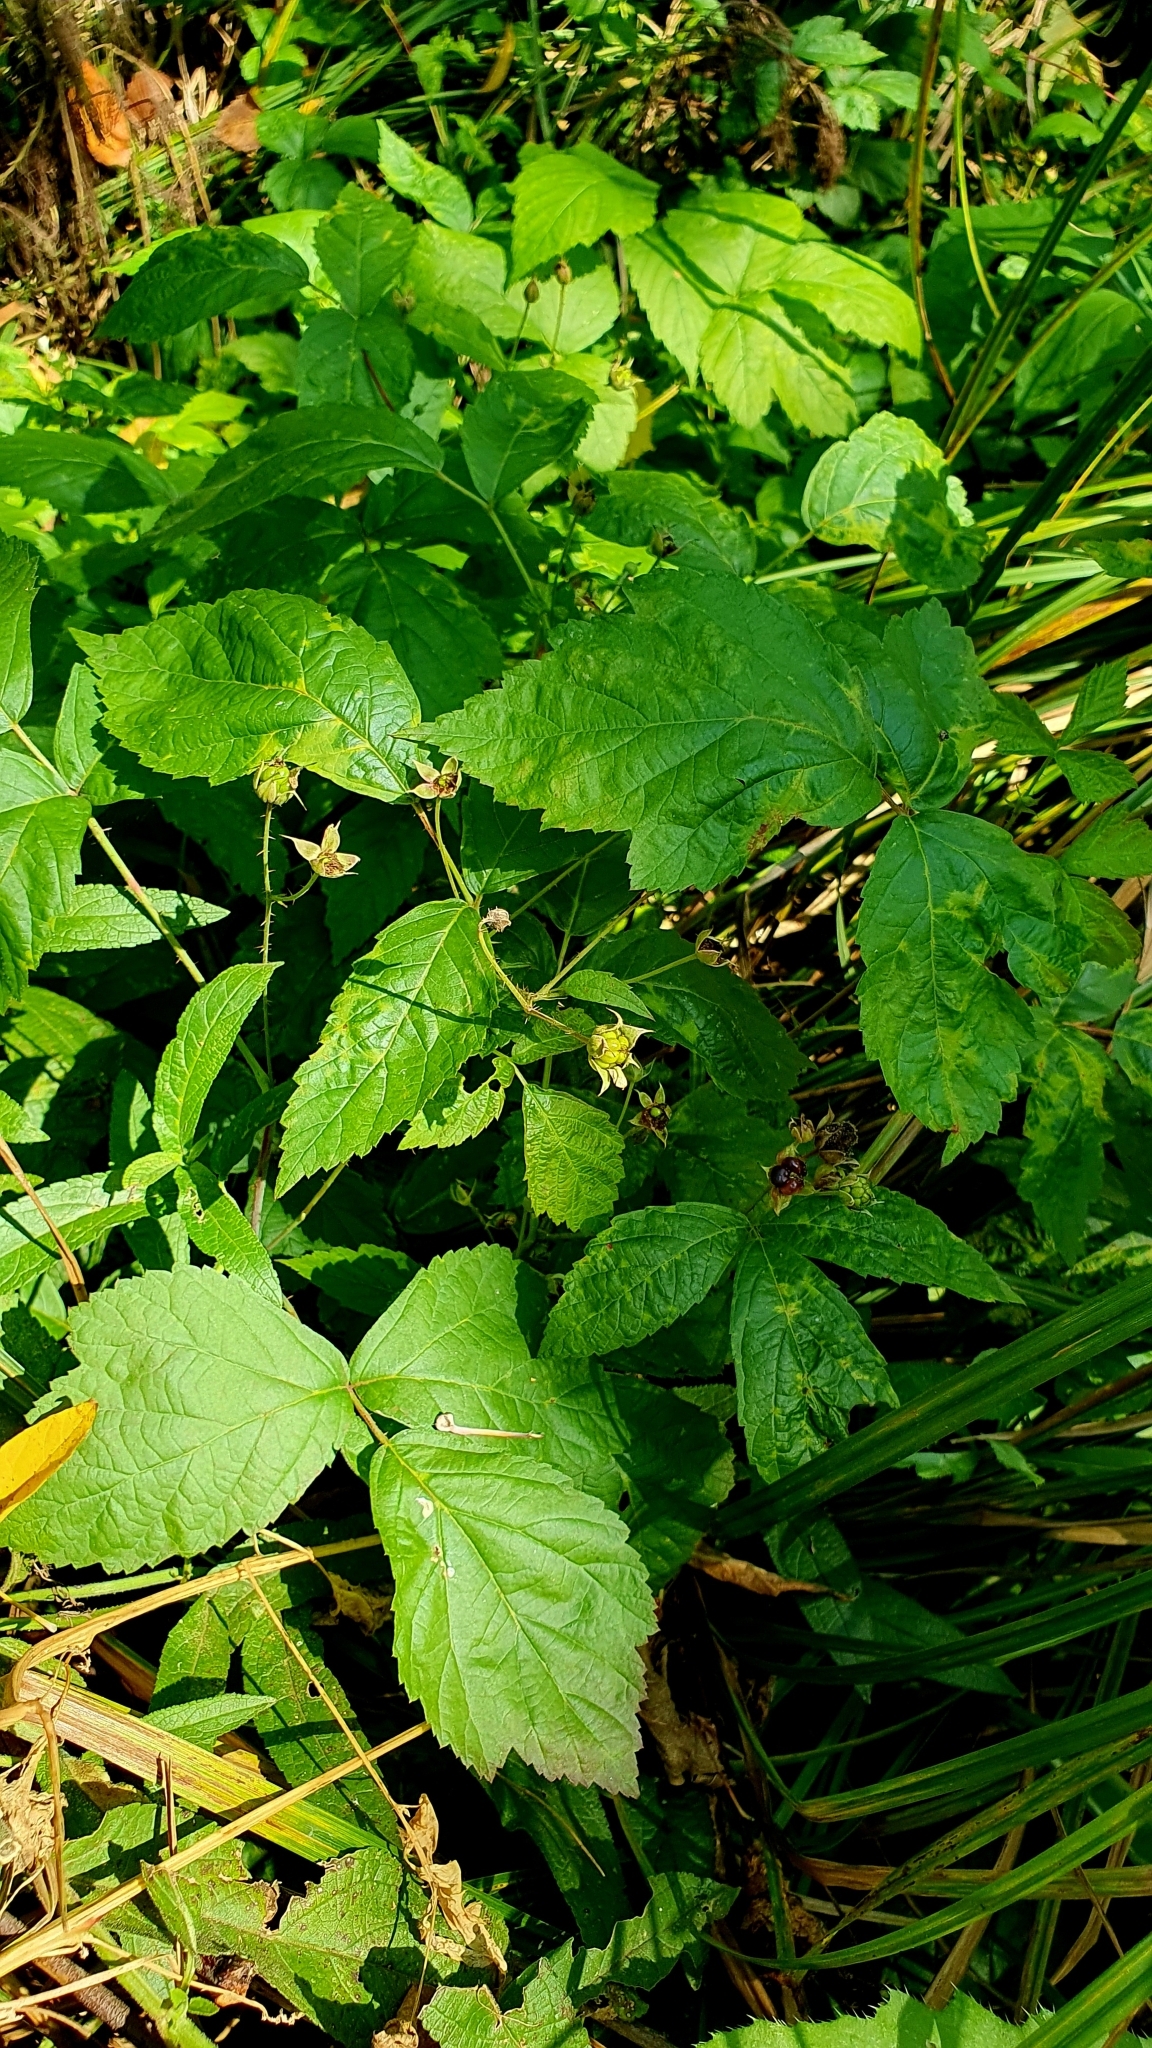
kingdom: Plantae
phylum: Tracheophyta
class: Magnoliopsida
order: Rosales
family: Rosaceae
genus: Rubus
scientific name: Rubus caesius
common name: Dewberry
